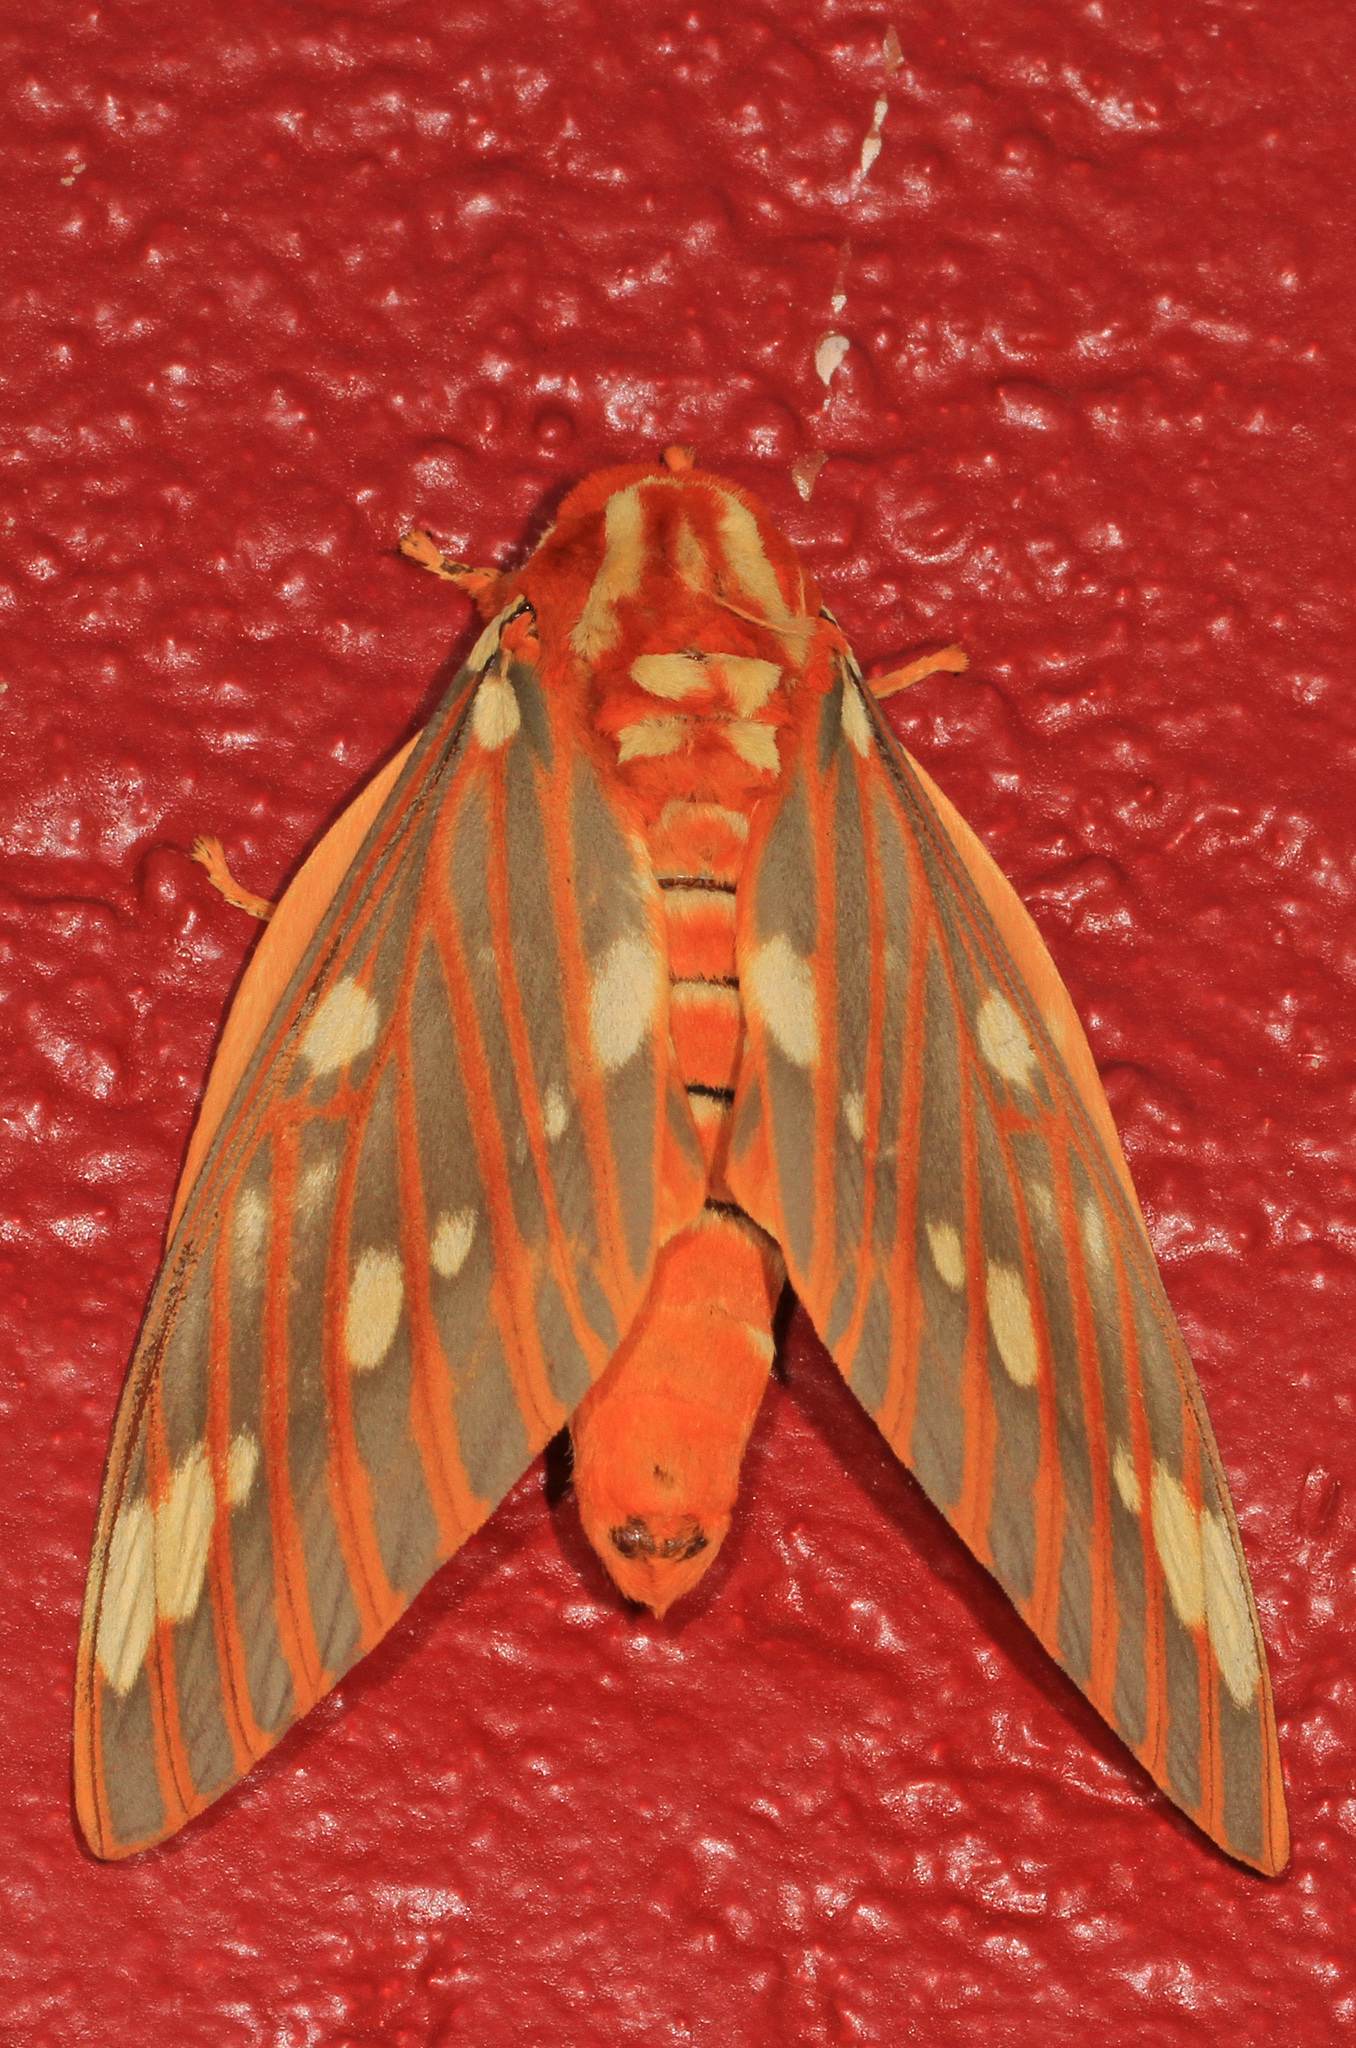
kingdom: Animalia
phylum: Arthropoda
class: Insecta
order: Lepidoptera
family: Saturniidae
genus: Citheronia
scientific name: Citheronia regalis
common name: Hickory horned devil
